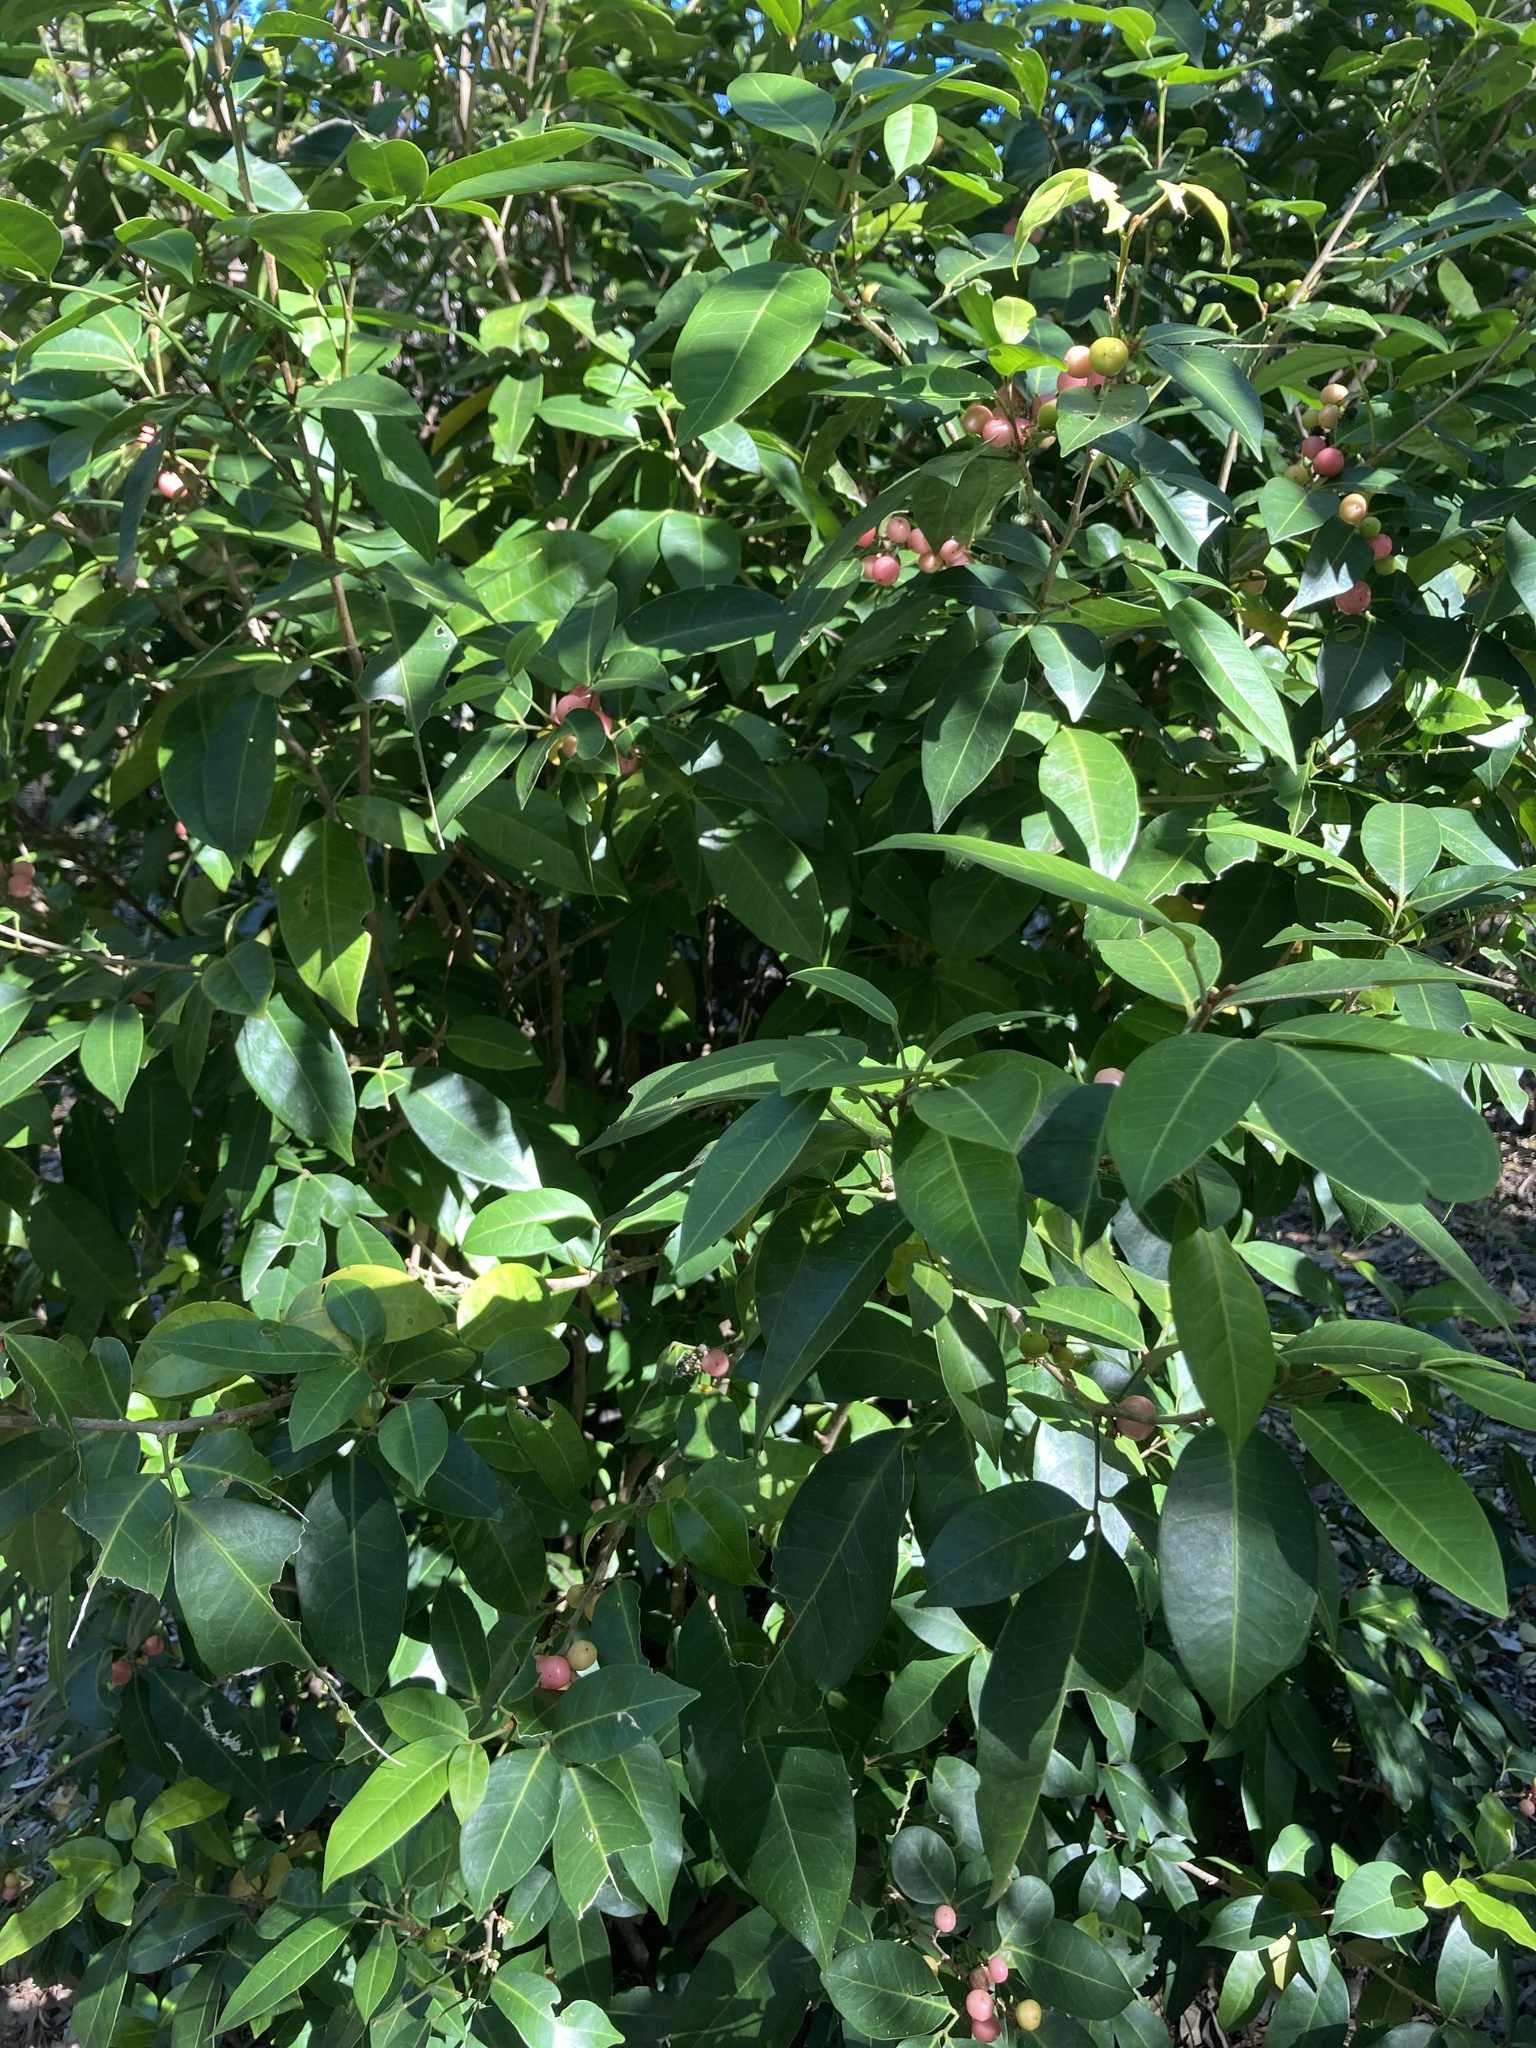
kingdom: Plantae
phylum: Tracheophyta
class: Magnoliopsida
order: Sapindales
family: Rutaceae
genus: Glycosmis
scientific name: Glycosmis trifoliata
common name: Pink-fruit glycosmis
